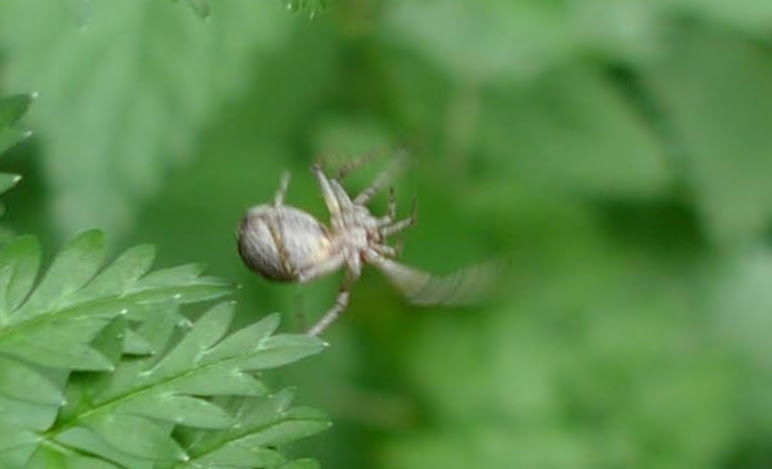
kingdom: Animalia
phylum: Arthropoda
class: Arachnida
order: Araneae
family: Philodromidae
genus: Philodromus
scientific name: Philodromus
